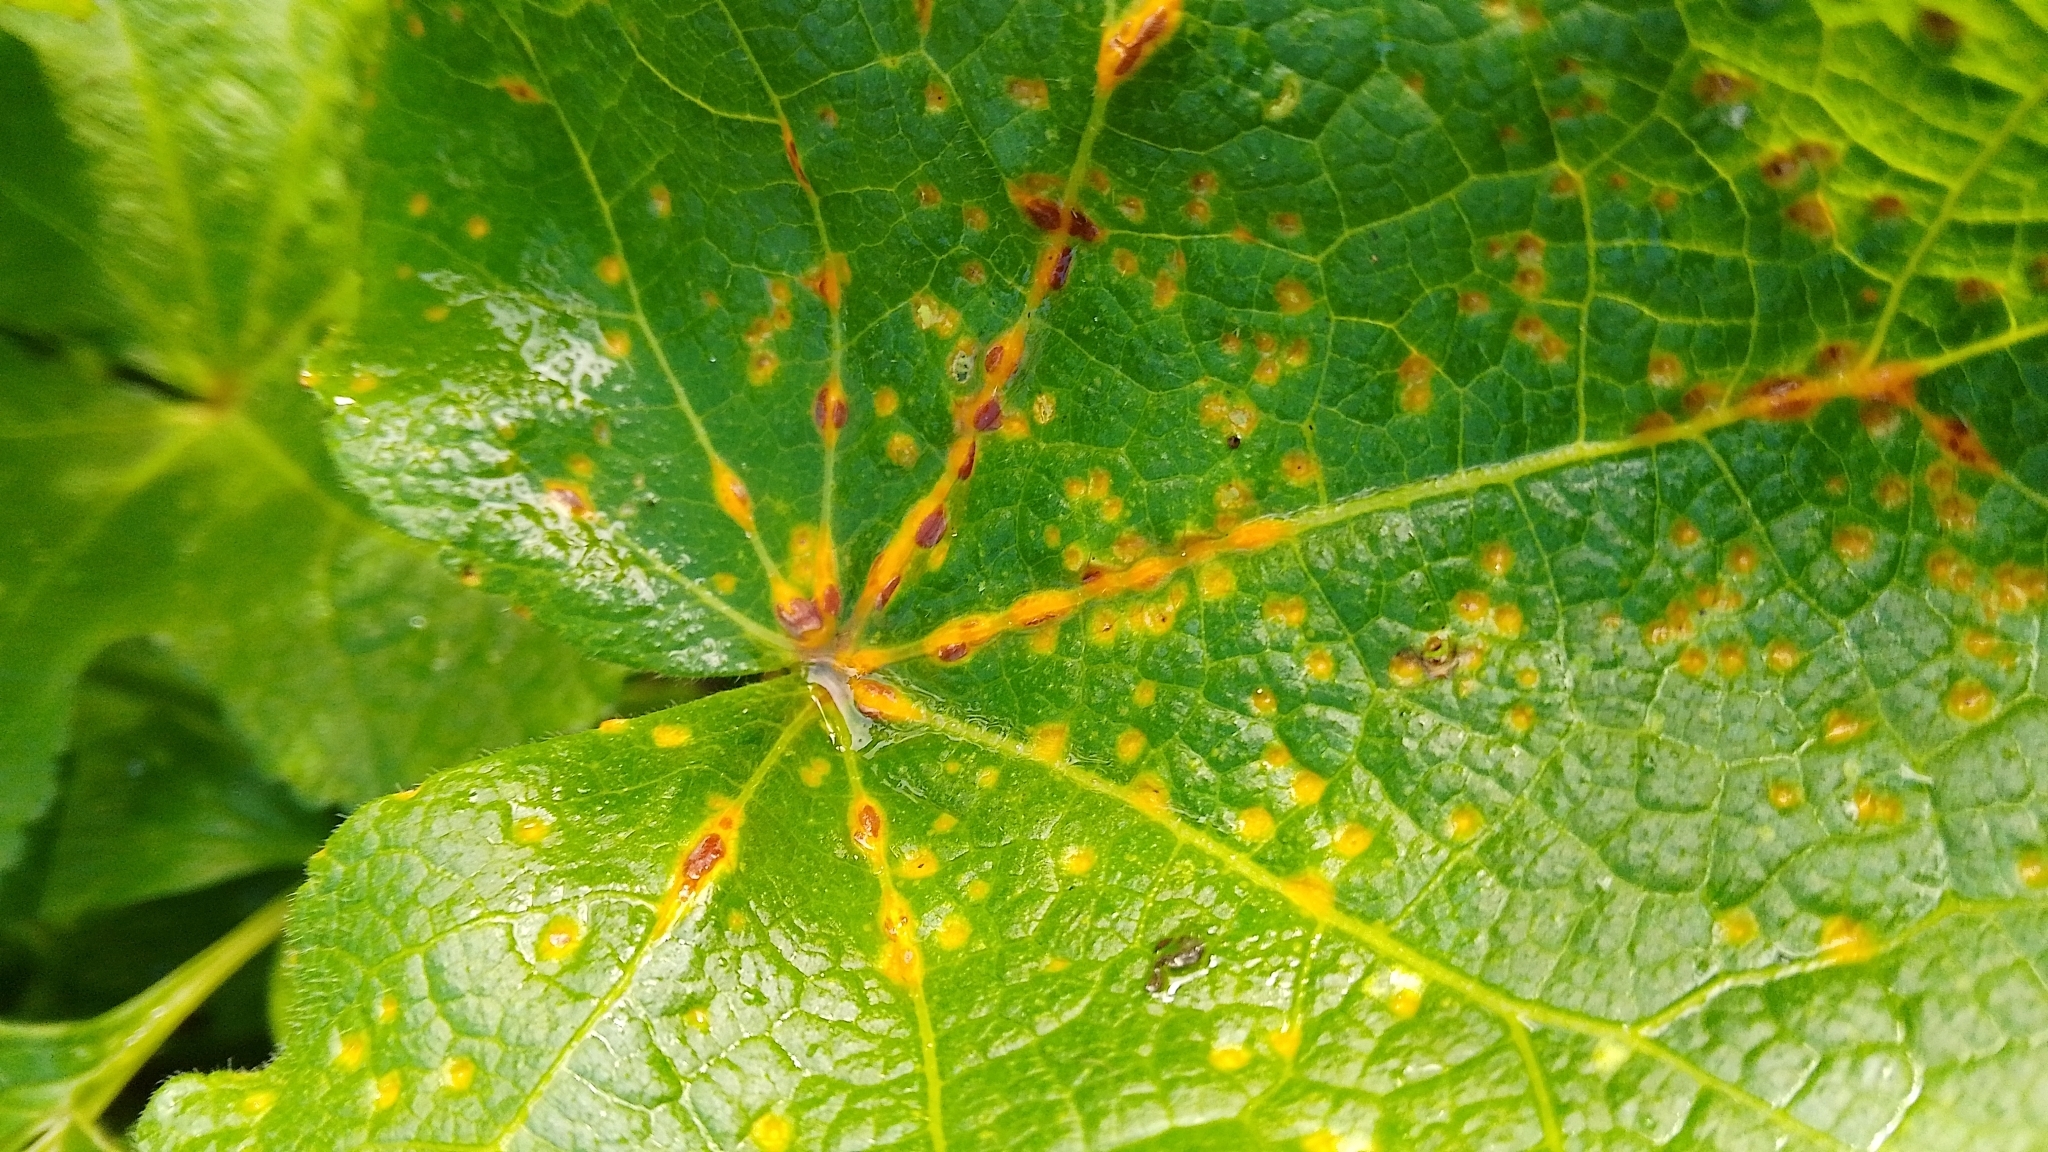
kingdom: Fungi
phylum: Basidiomycota
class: Pucciniomycetes
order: Pucciniales
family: Pucciniaceae
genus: Puccinia
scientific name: Puccinia malvacearum
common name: Hollyhock rust
